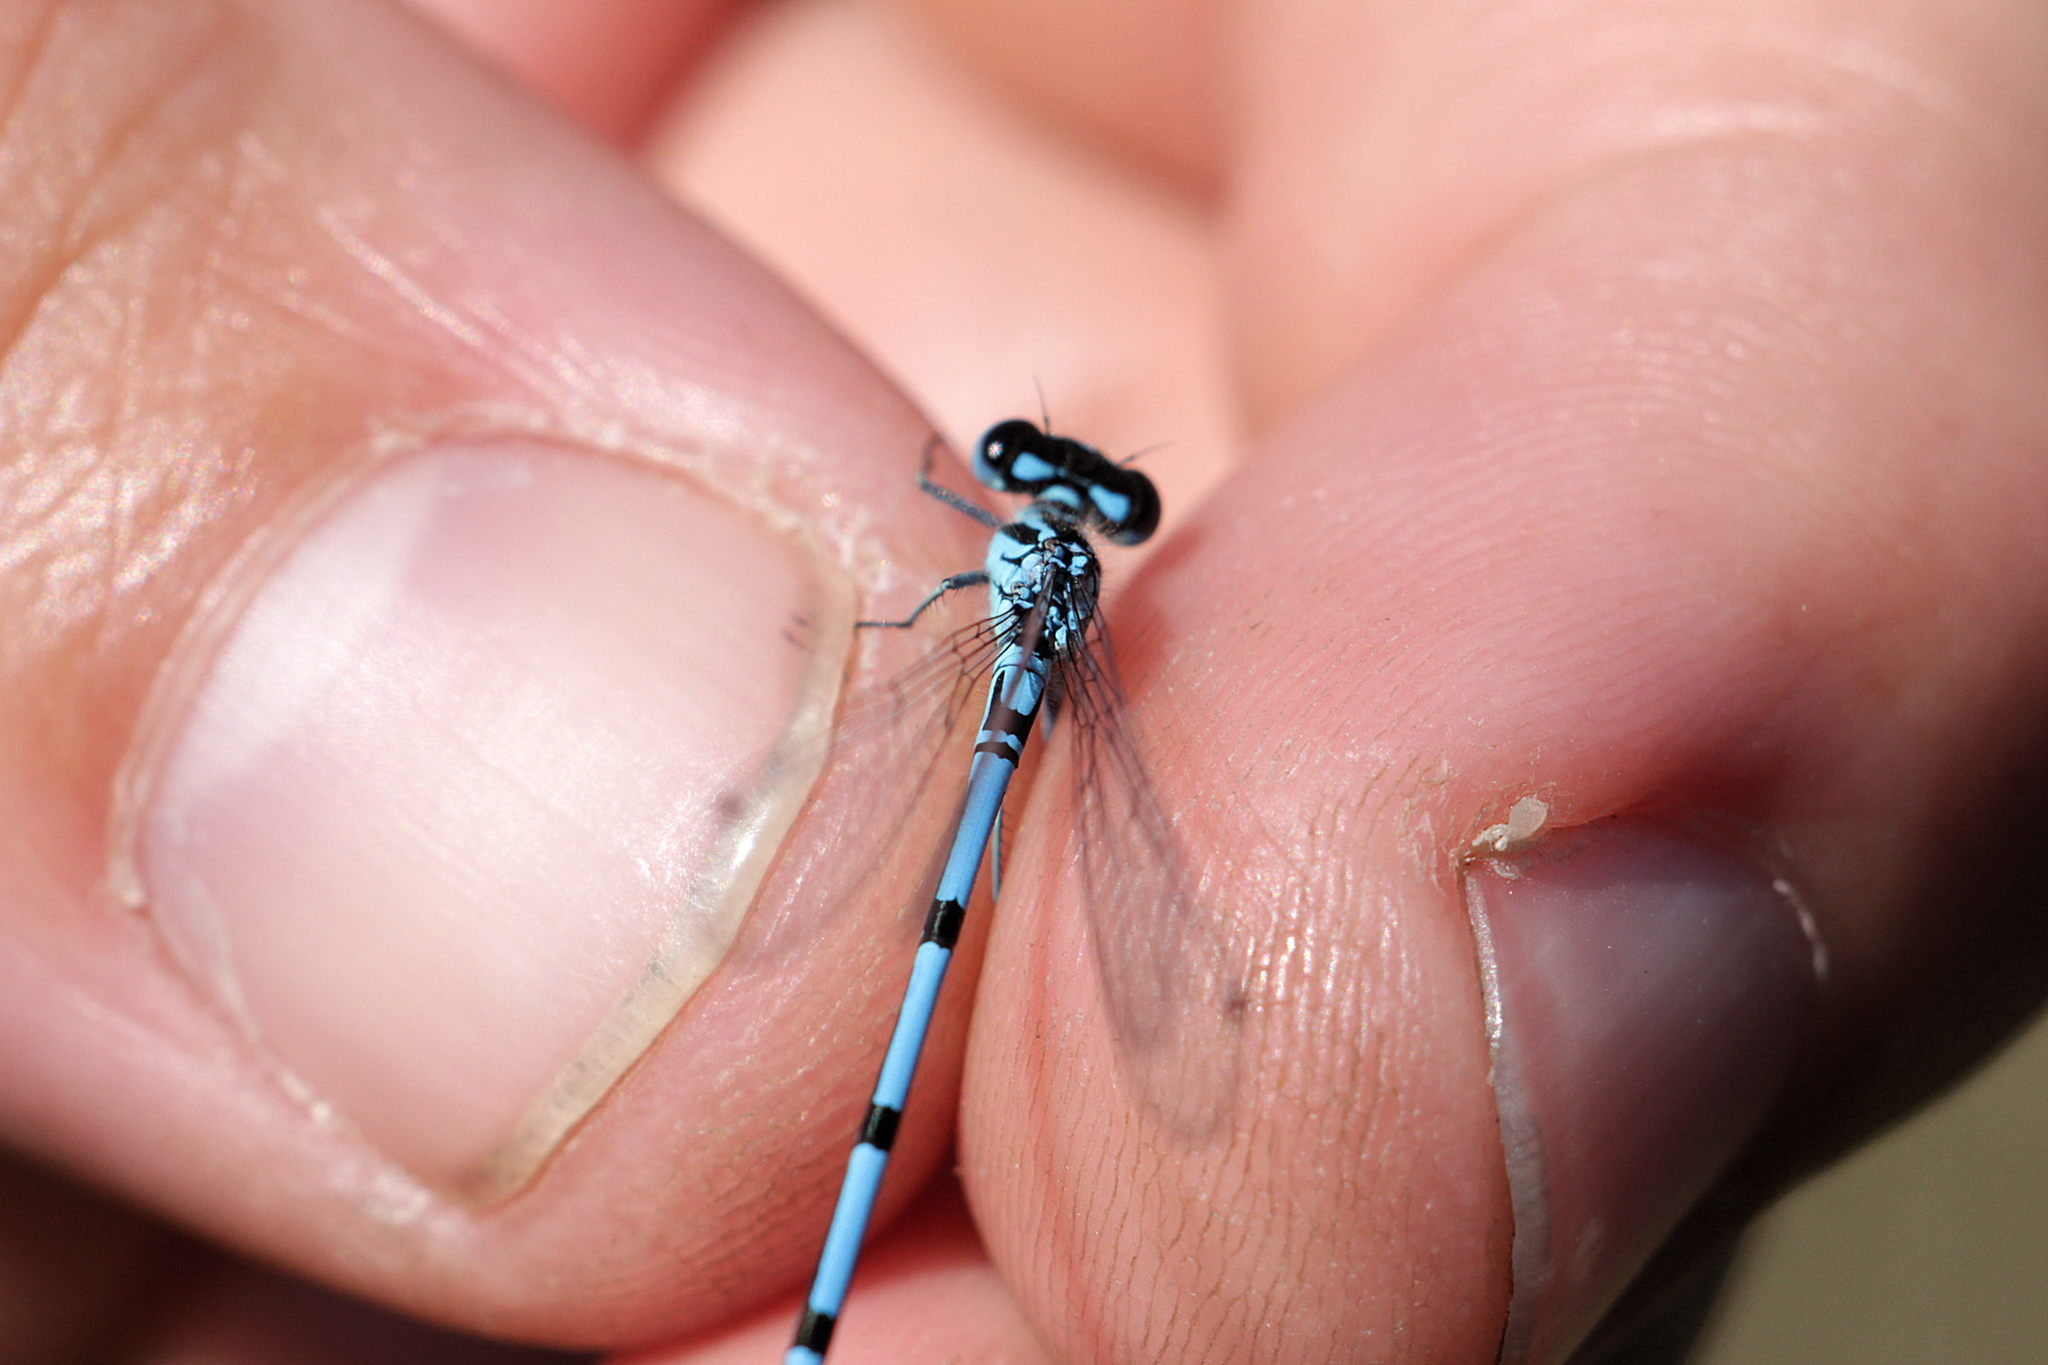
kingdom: Animalia
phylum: Arthropoda
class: Insecta
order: Odonata
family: Coenagrionidae
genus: Coenagrion
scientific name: Coenagrion puella
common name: Azure damselfly
